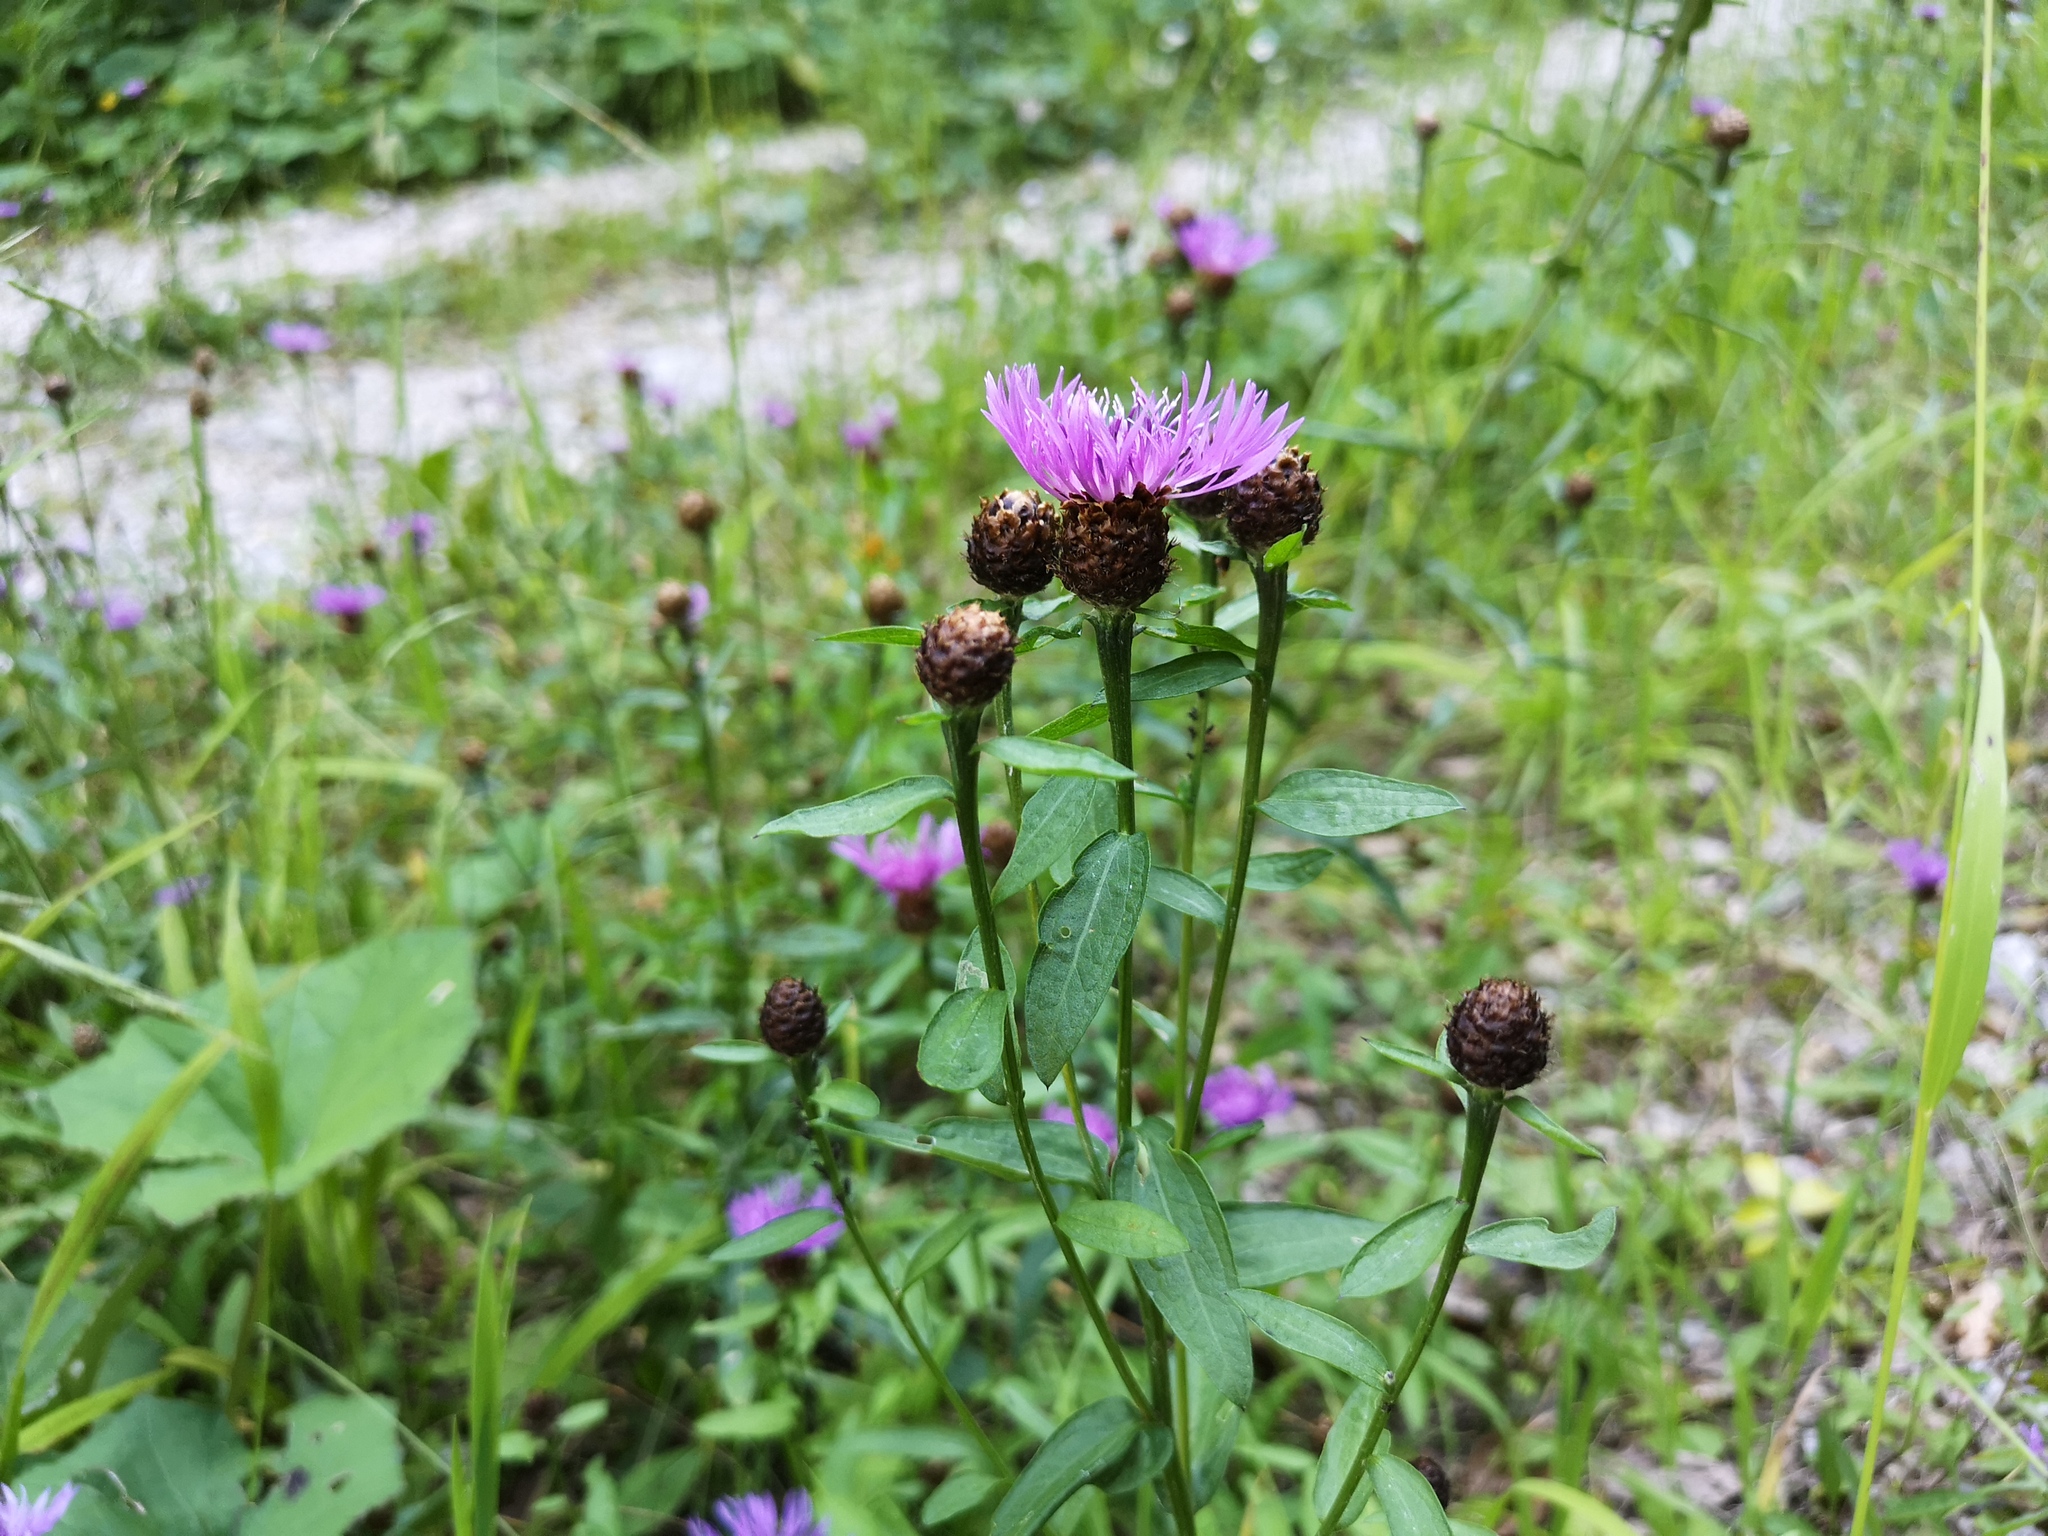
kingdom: Plantae
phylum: Tracheophyta
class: Magnoliopsida
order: Asterales
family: Asteraceae
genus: Centaurea
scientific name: Centaurea jacea
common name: Brown knapweed
